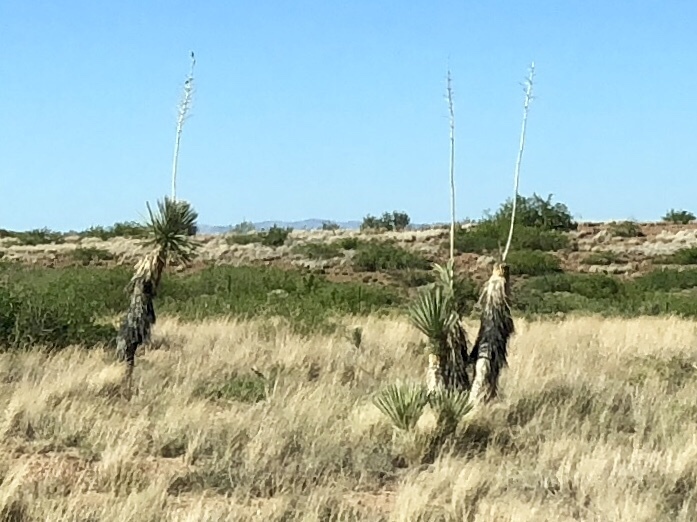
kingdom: Plantae
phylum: Tracheophyta
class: Liliopsida
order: Asparagales
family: Asparagaceae
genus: Yucca
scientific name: Yucca elata
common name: Palmella
